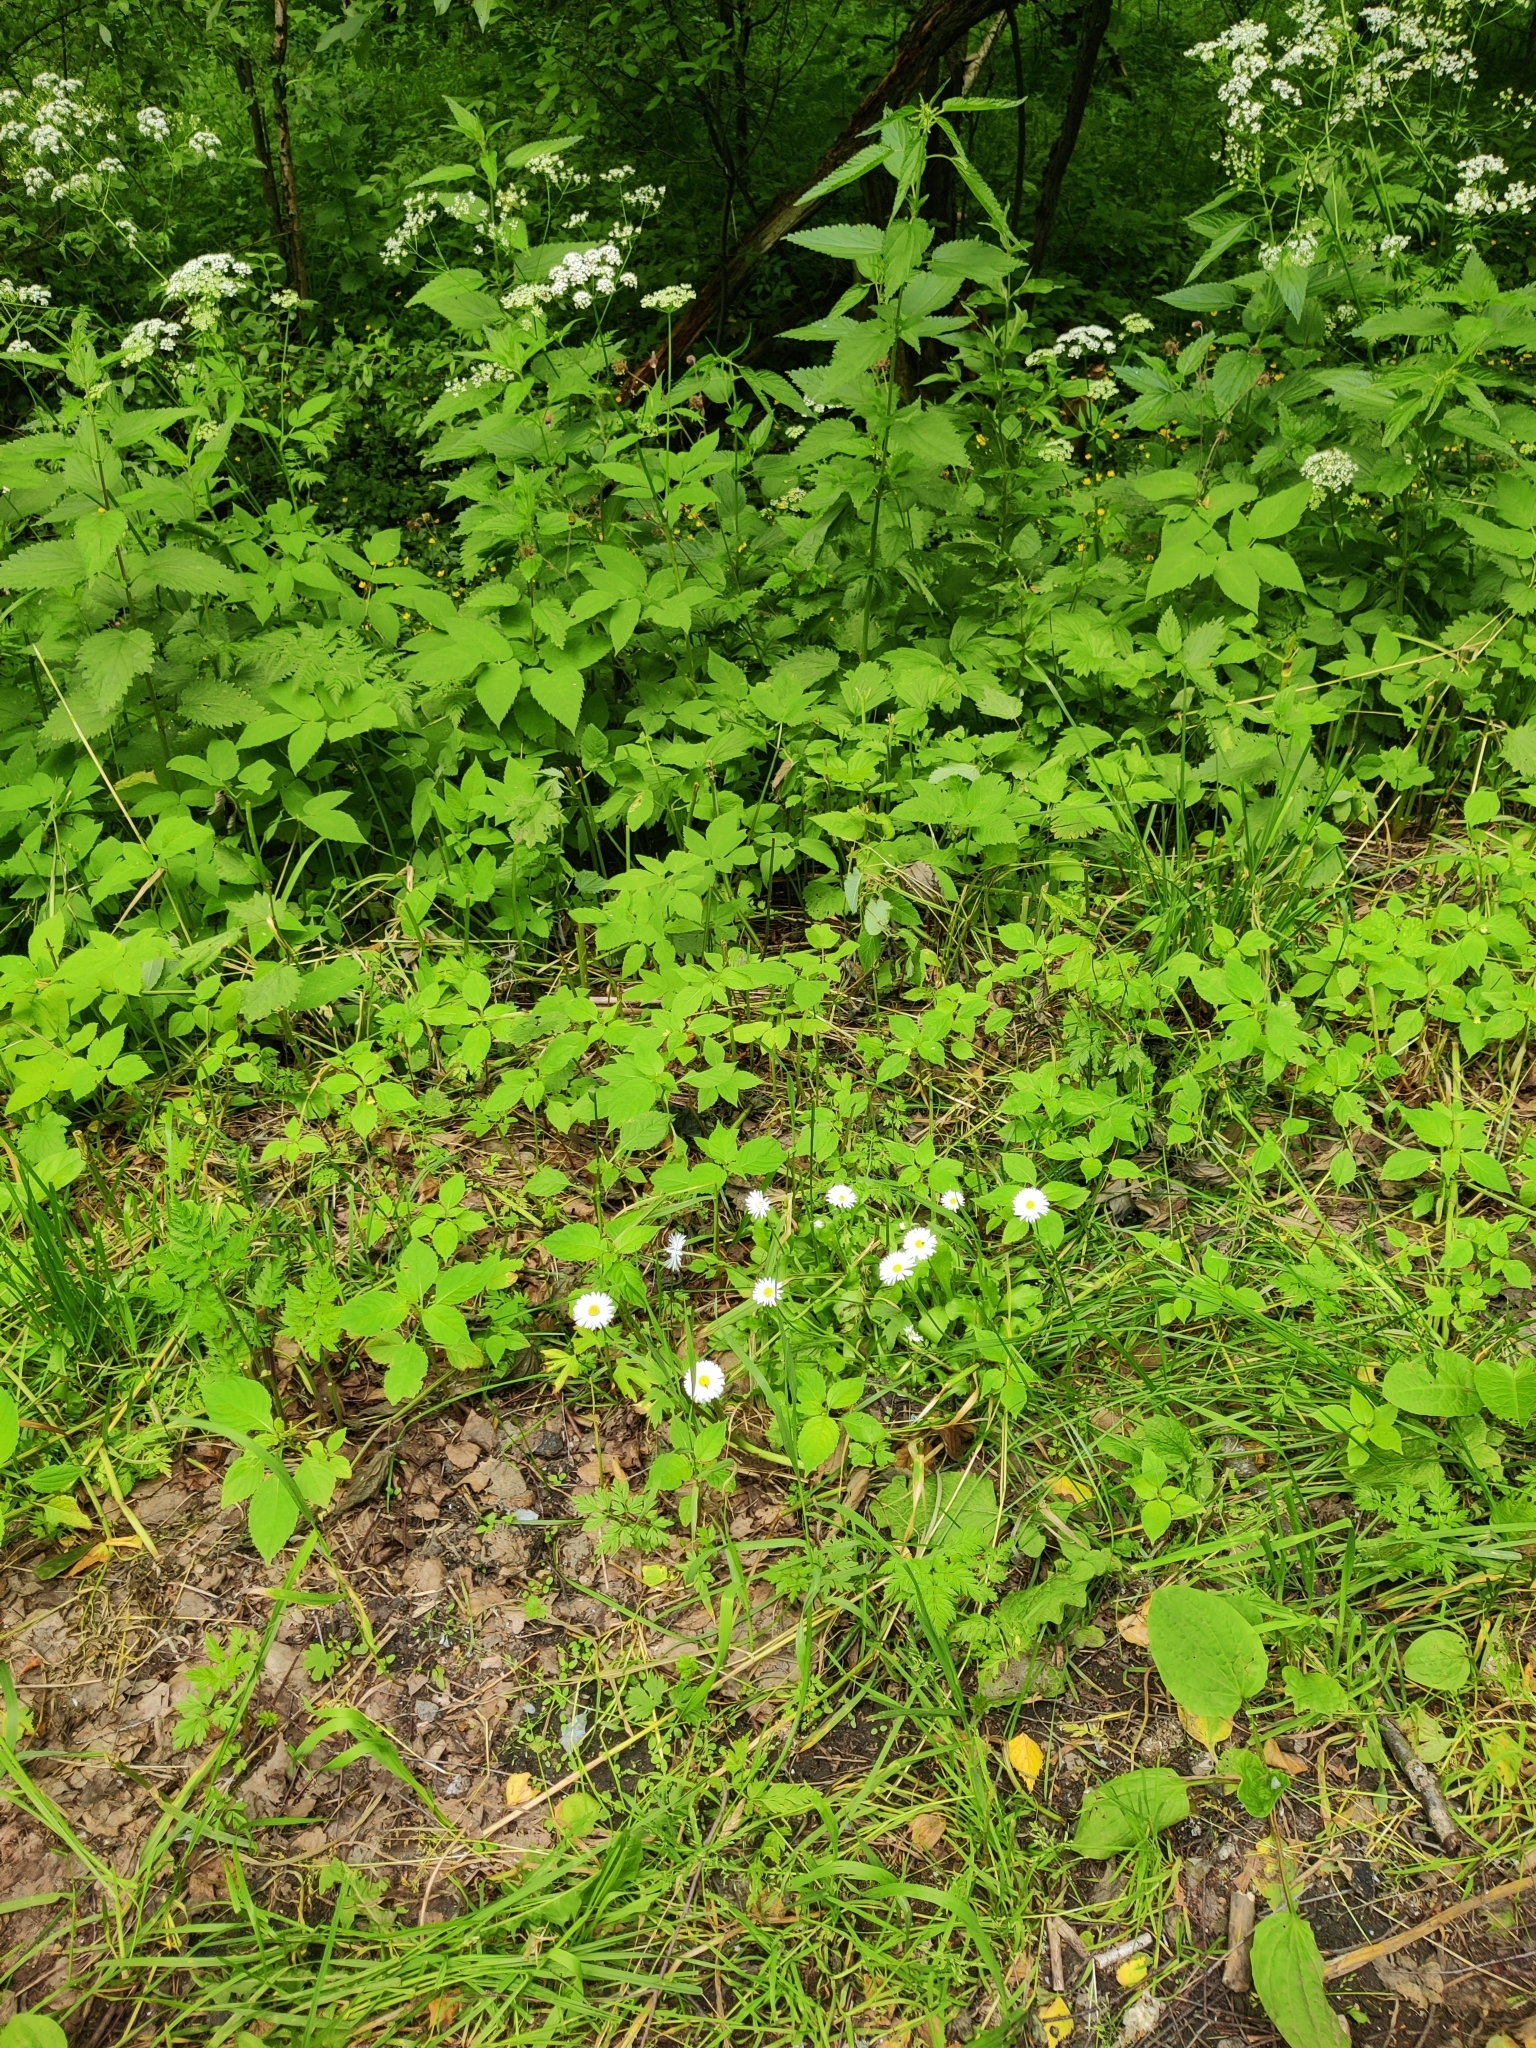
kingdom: Plantae
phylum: Tracheophyta
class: Magnoliopsida
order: Asterales
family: Asteraceae
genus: Bellis
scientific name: Bellis perennis
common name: Lawndaisy
